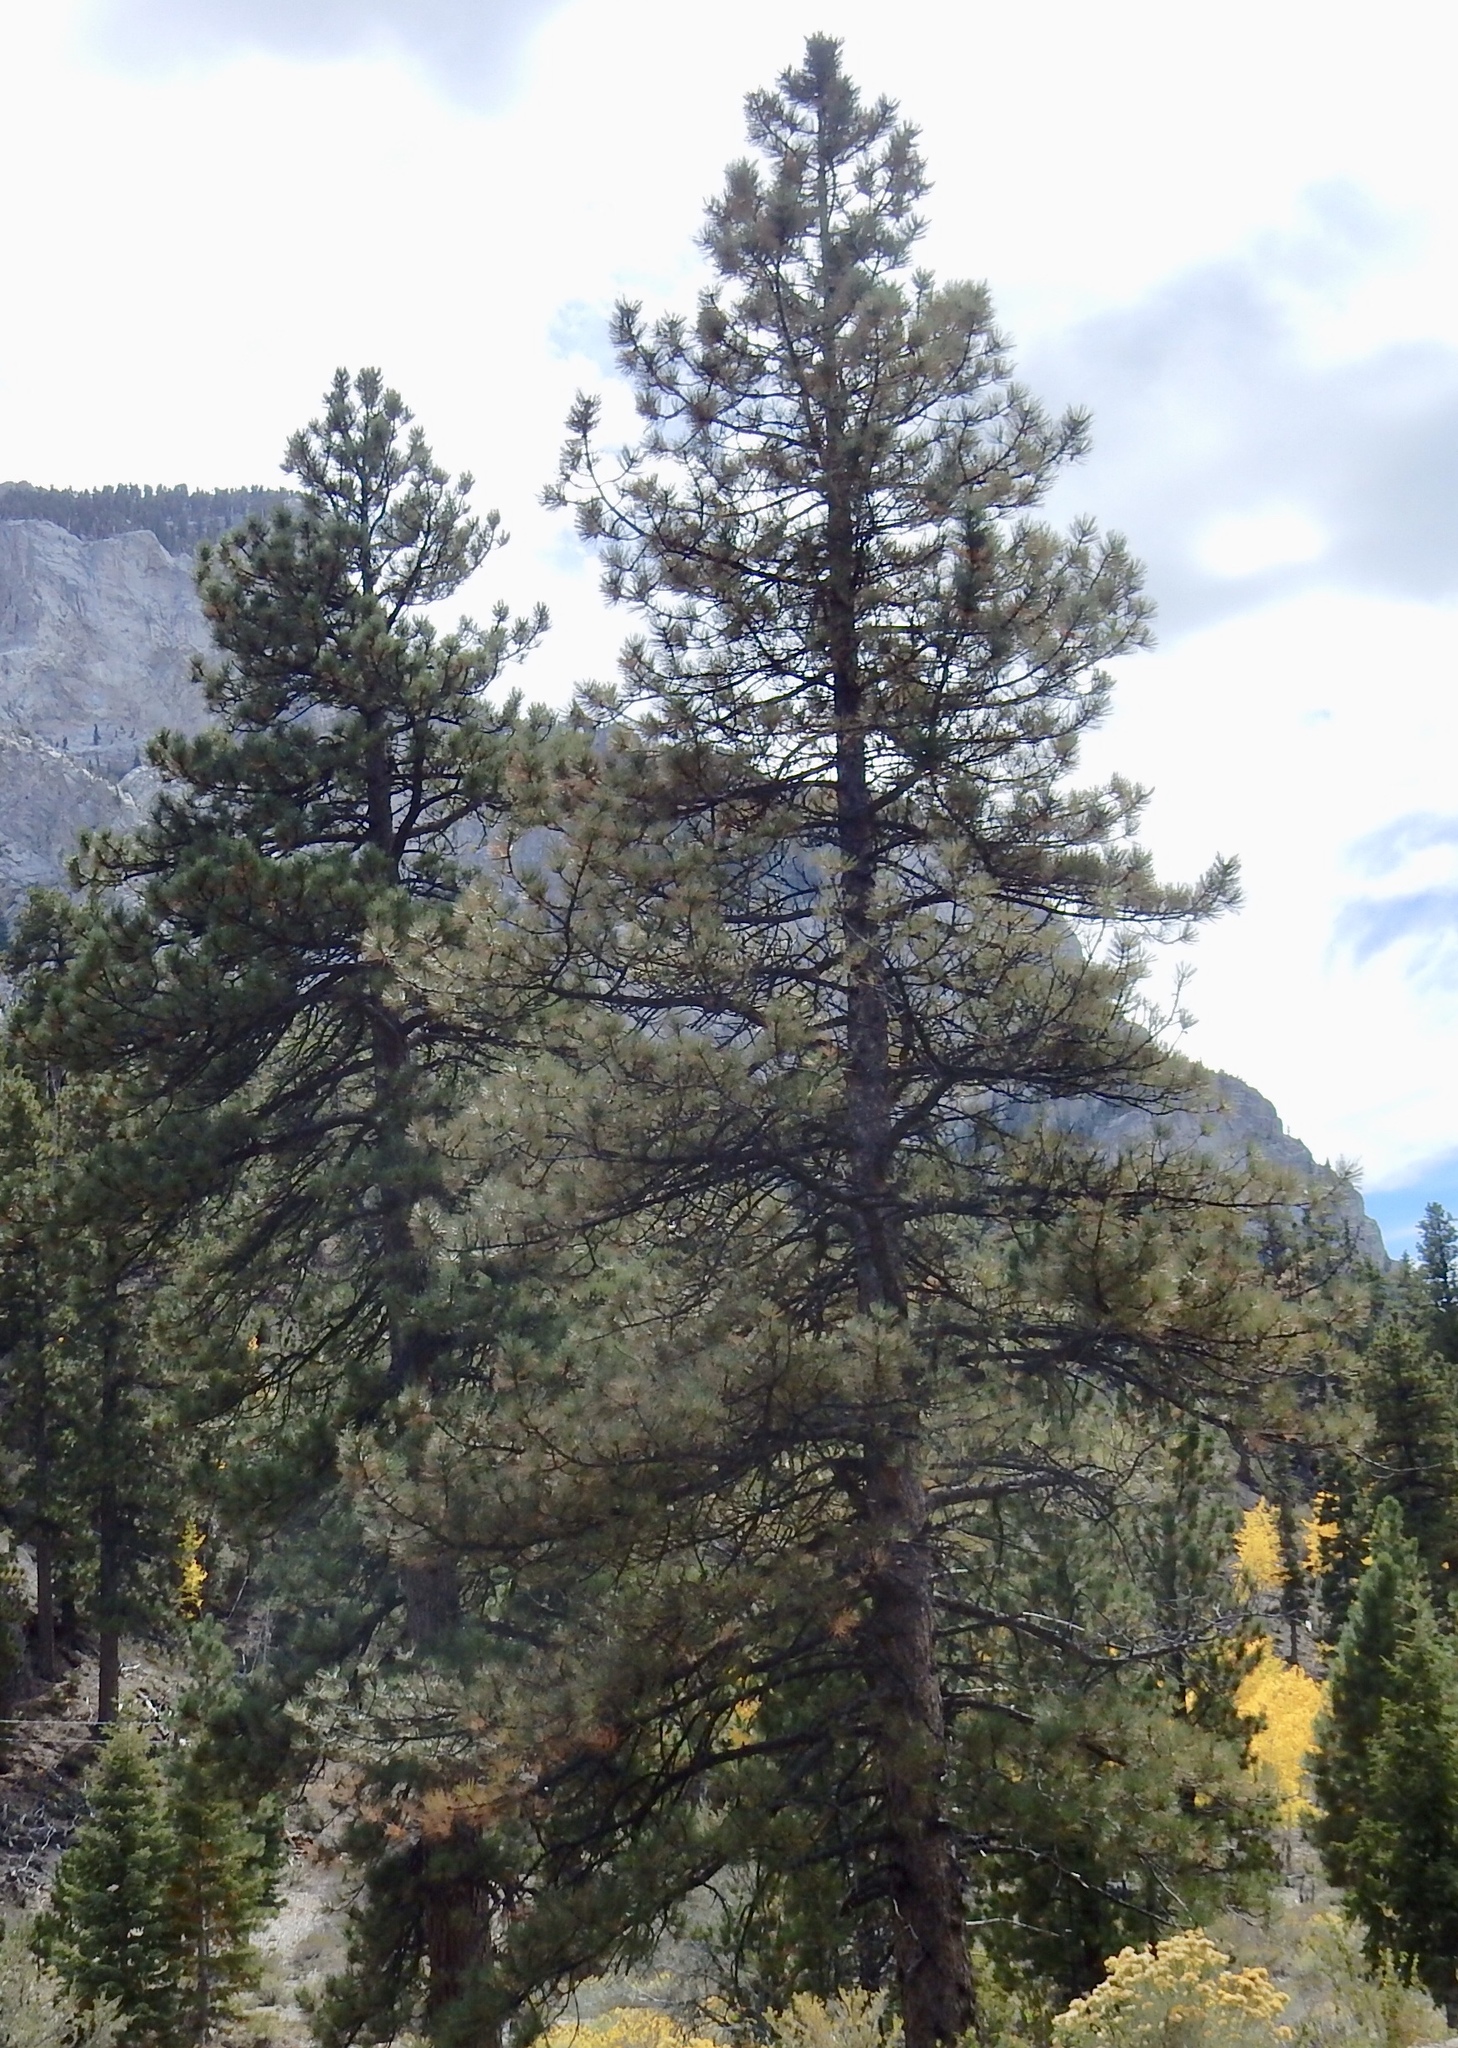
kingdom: Plantae
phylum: Tracheophyta
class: Pinopsida
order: Pinales
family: Pinaceae
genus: Pinus
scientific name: Pinus ponderosa
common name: Western yellow-pine
